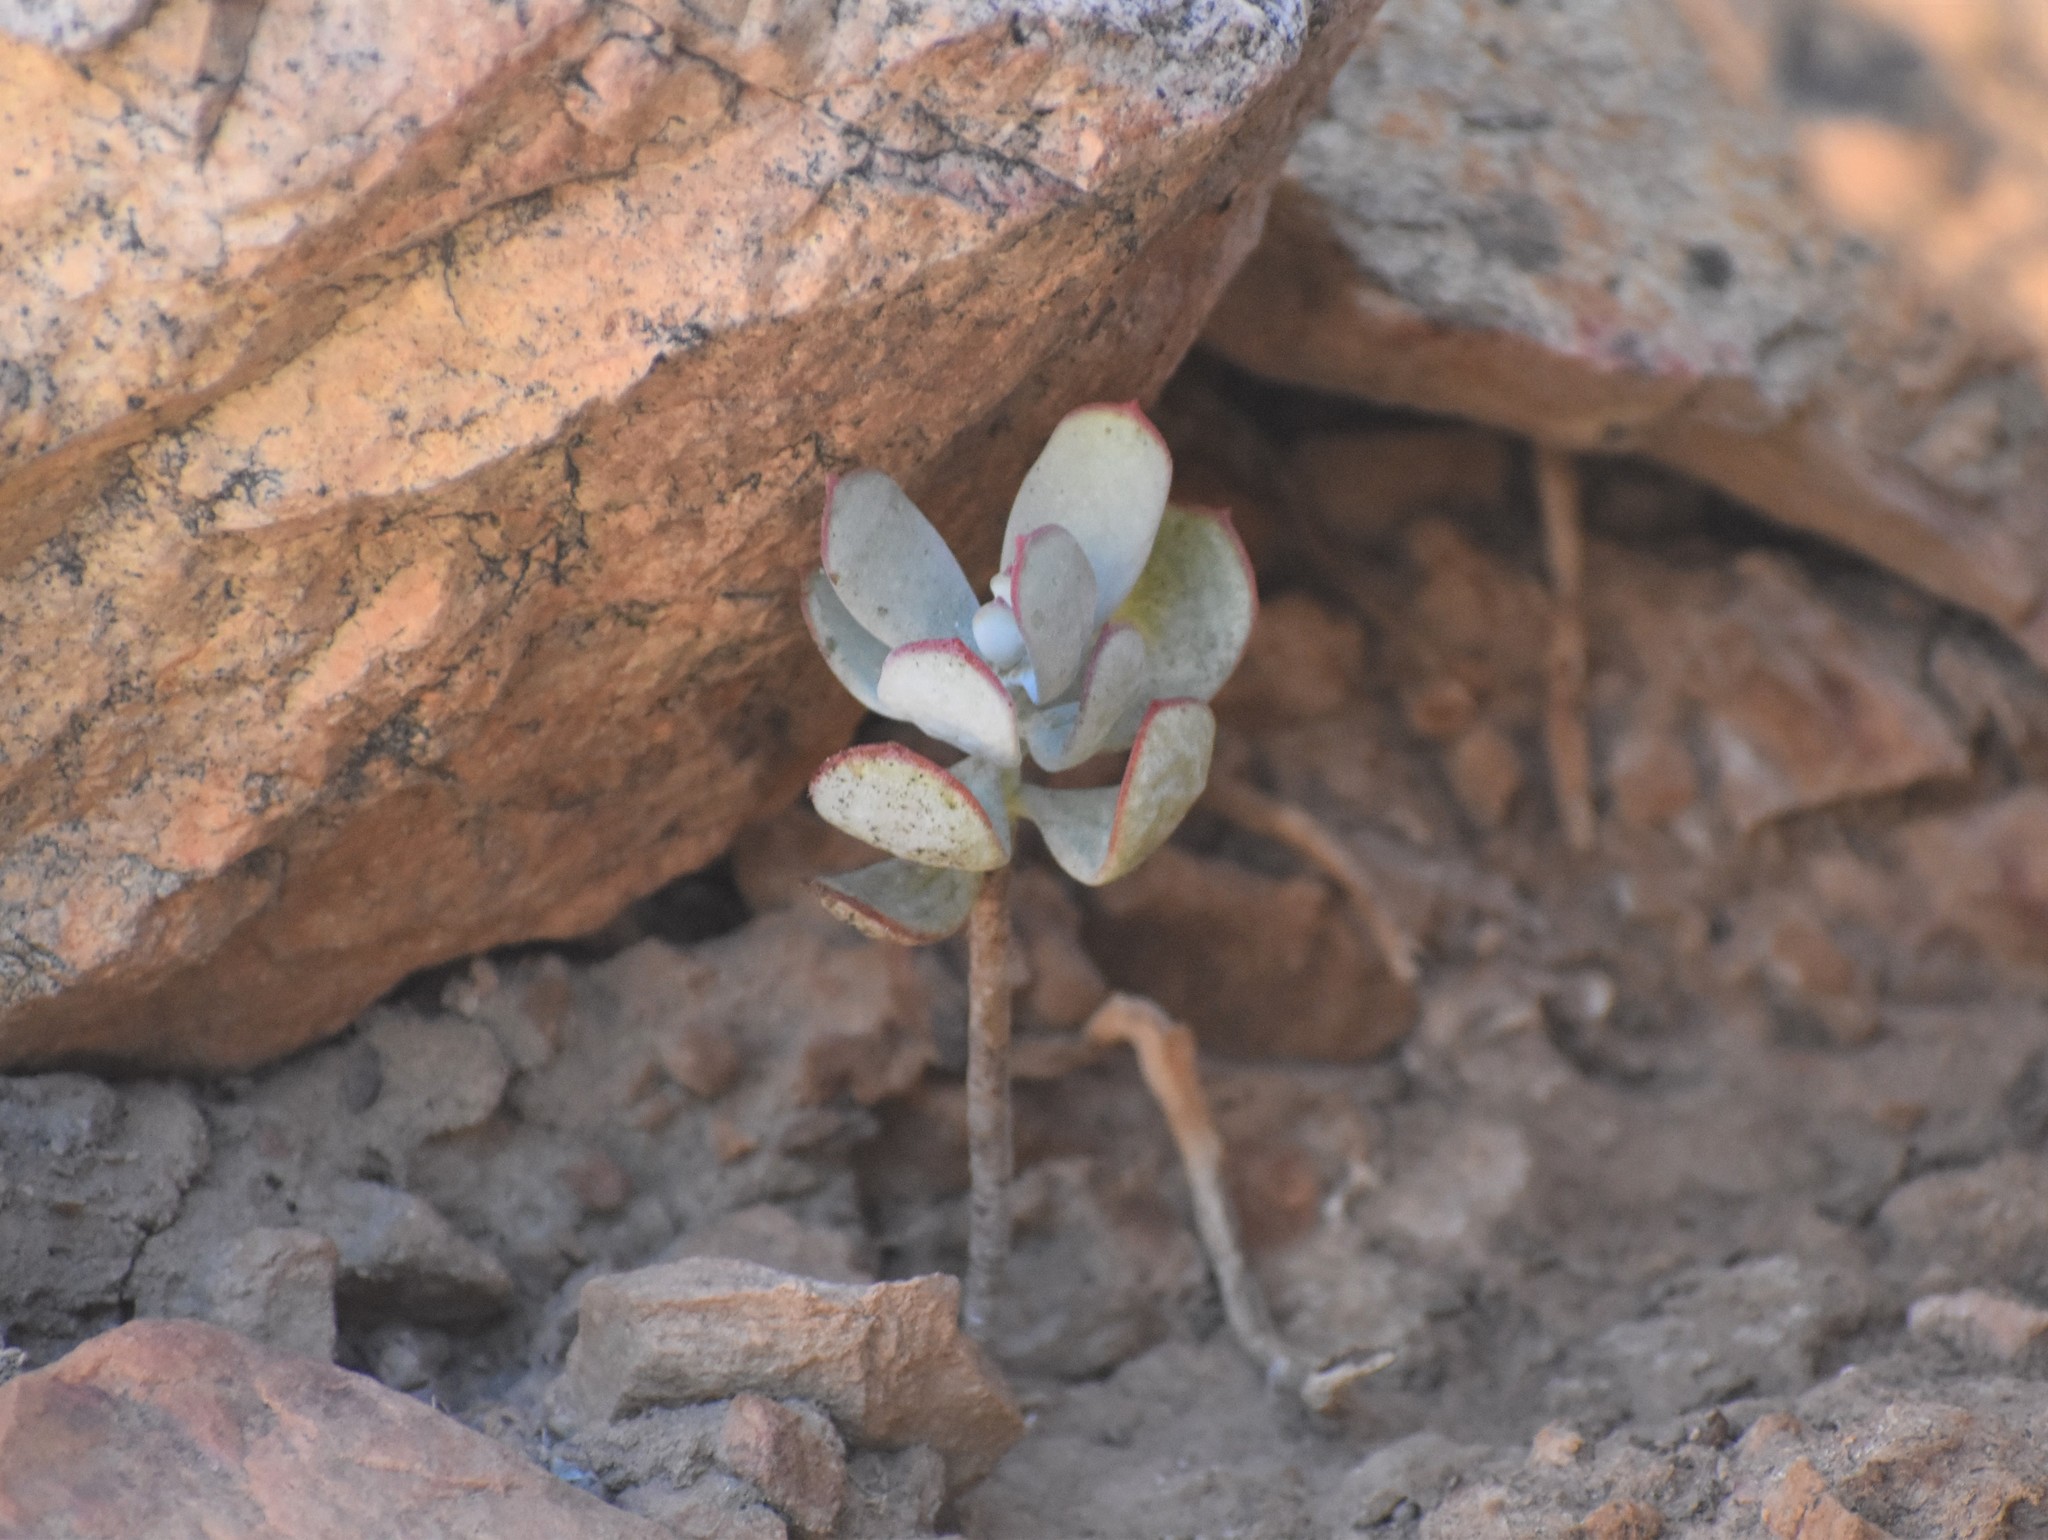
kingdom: Plantae
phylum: Tracheophyta
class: Magnoliopsida
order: Saxifragales
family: Crassulaceae
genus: Cotyledon
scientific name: Cotyledon orbiculata
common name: Pig's ear
